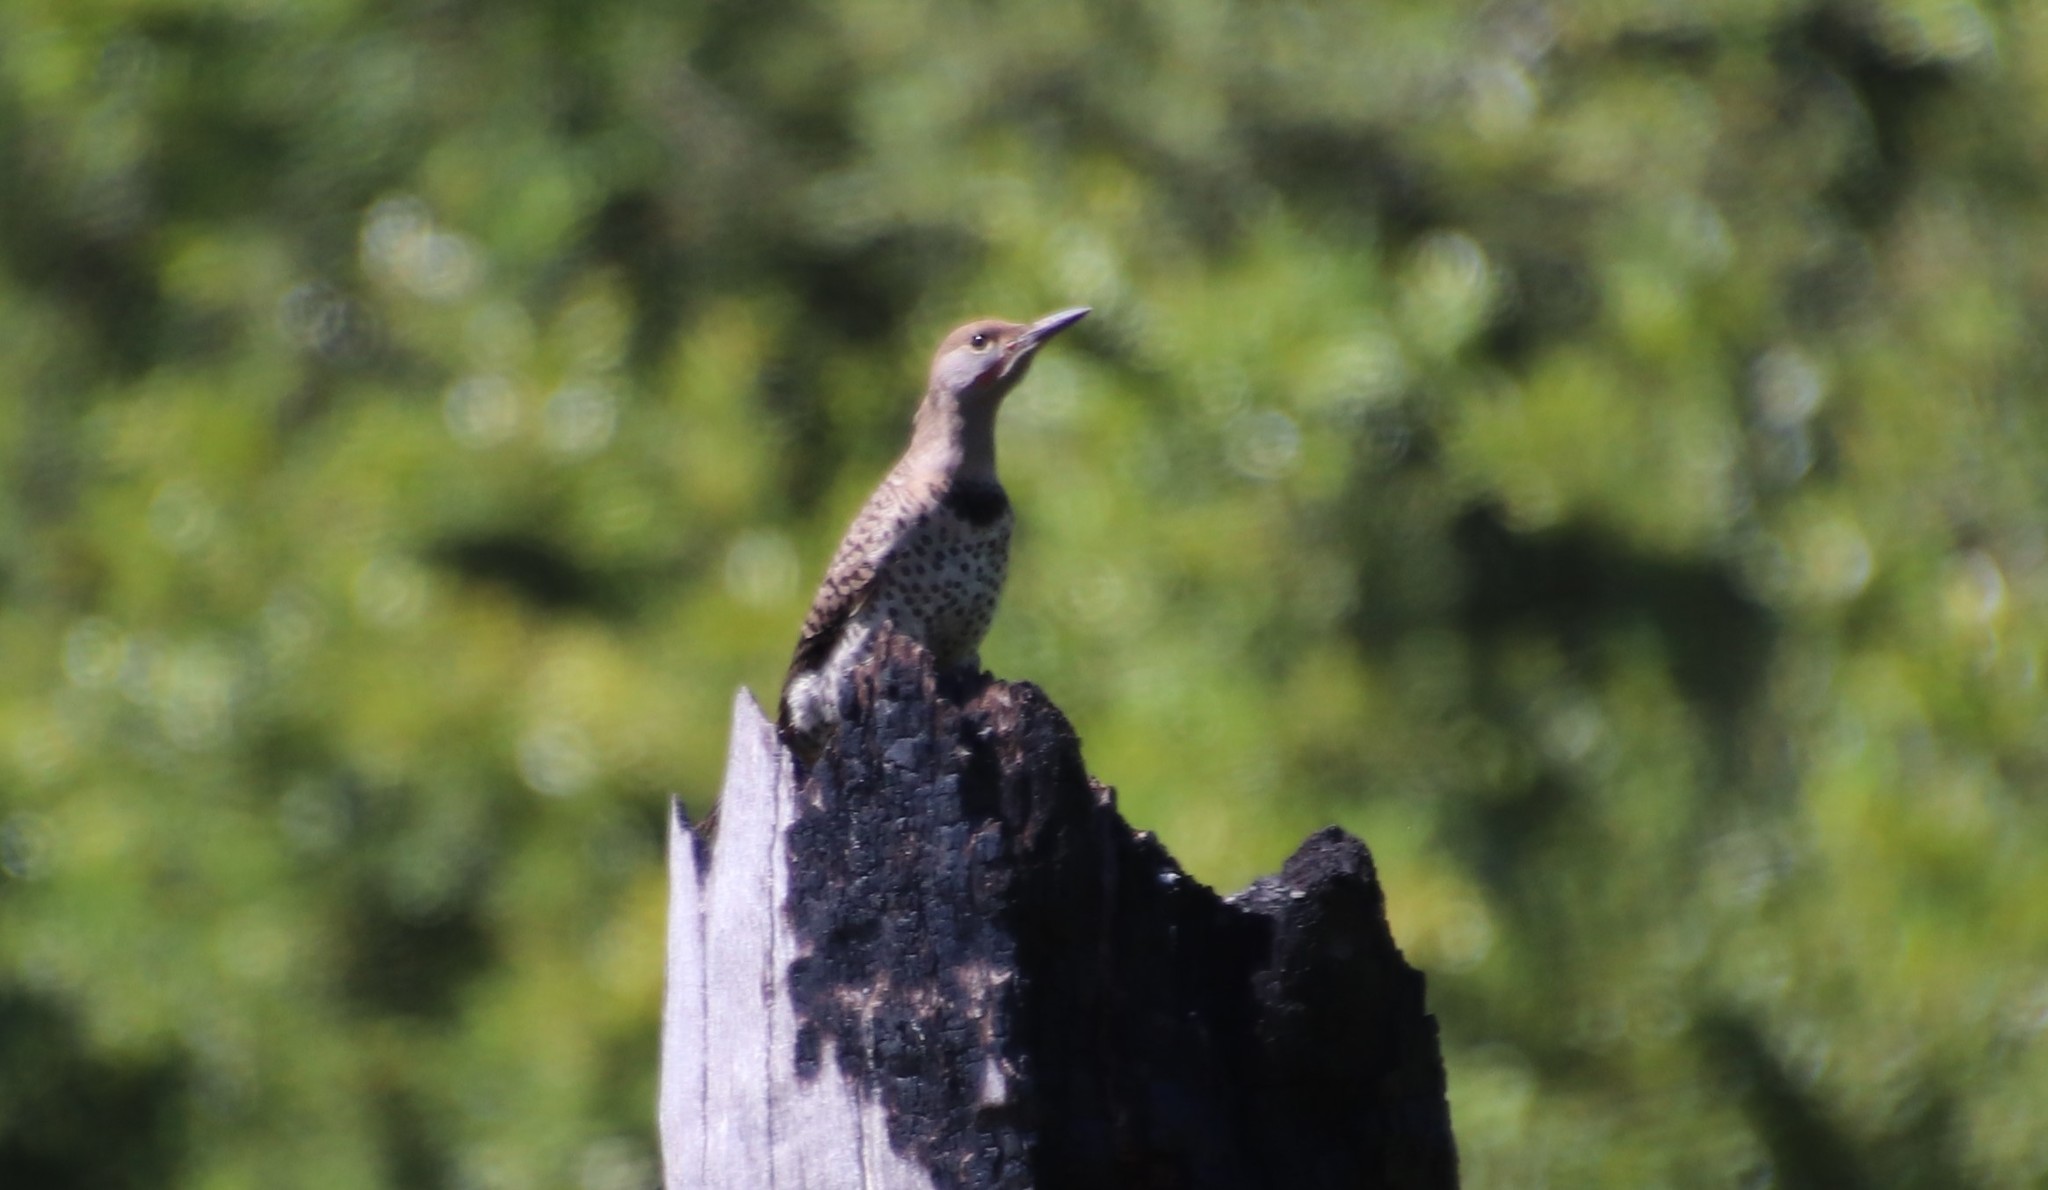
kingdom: Animalia
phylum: Chordata
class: Aves
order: Piciformes
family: Picidae
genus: Colaptes
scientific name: Colaptes auratus
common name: Northern flicker
